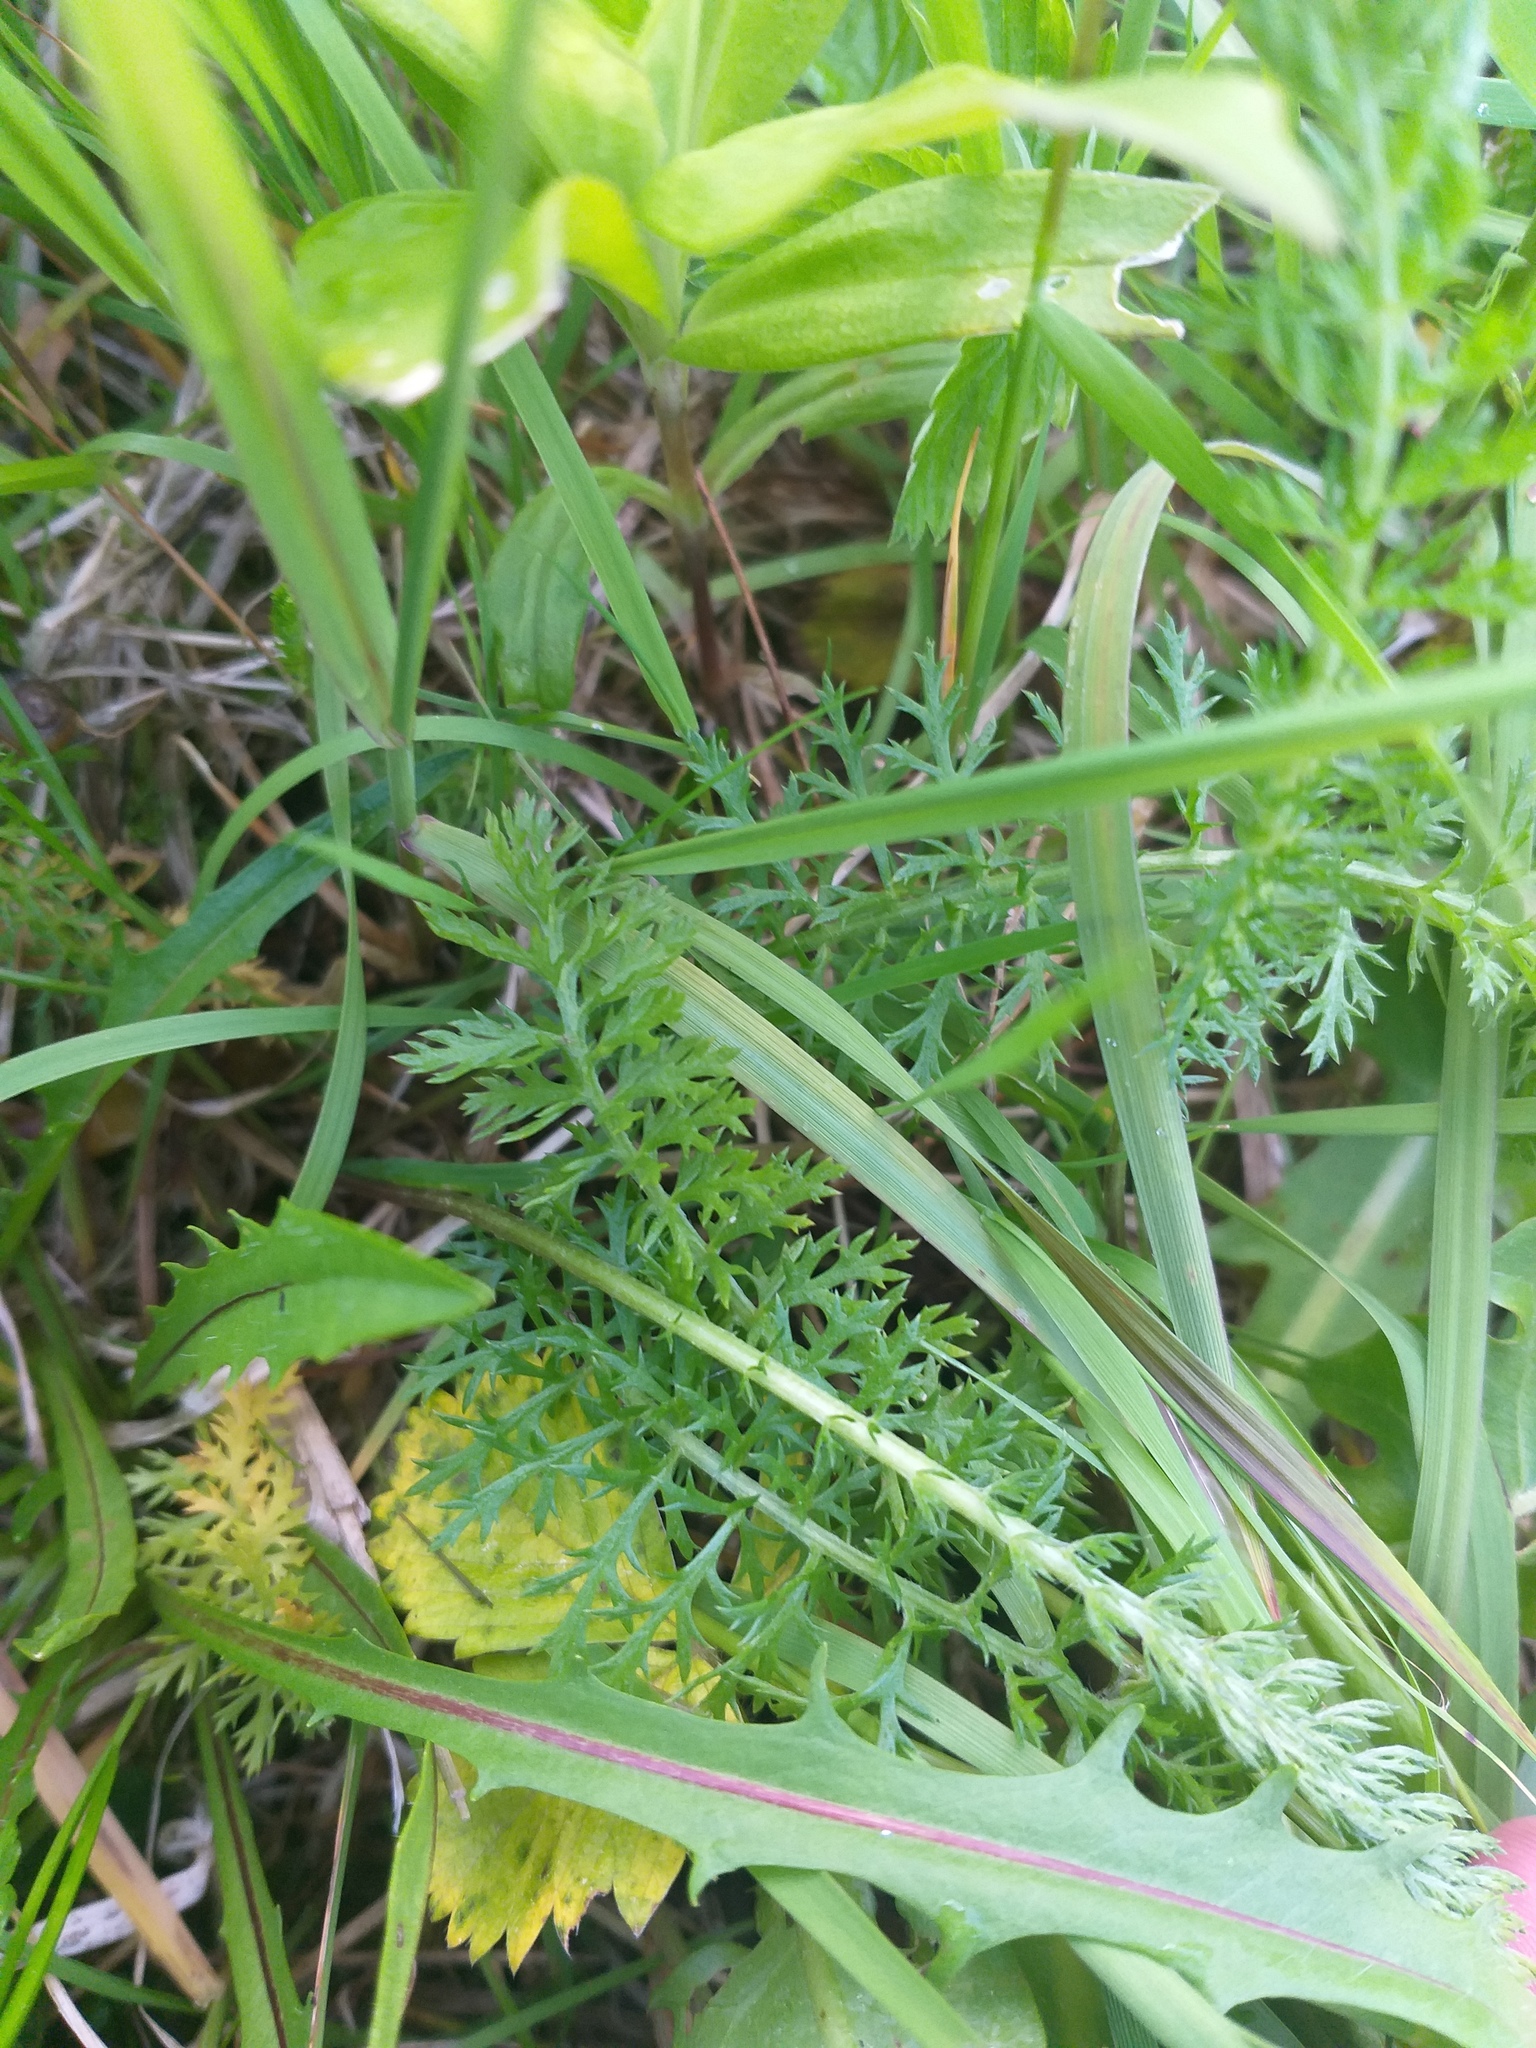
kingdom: Plantae
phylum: Tracheophyta
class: Magnoliopsida
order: Asterales
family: Asteraceae
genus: Achillea
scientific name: Achillea millefolium
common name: Yarrow
